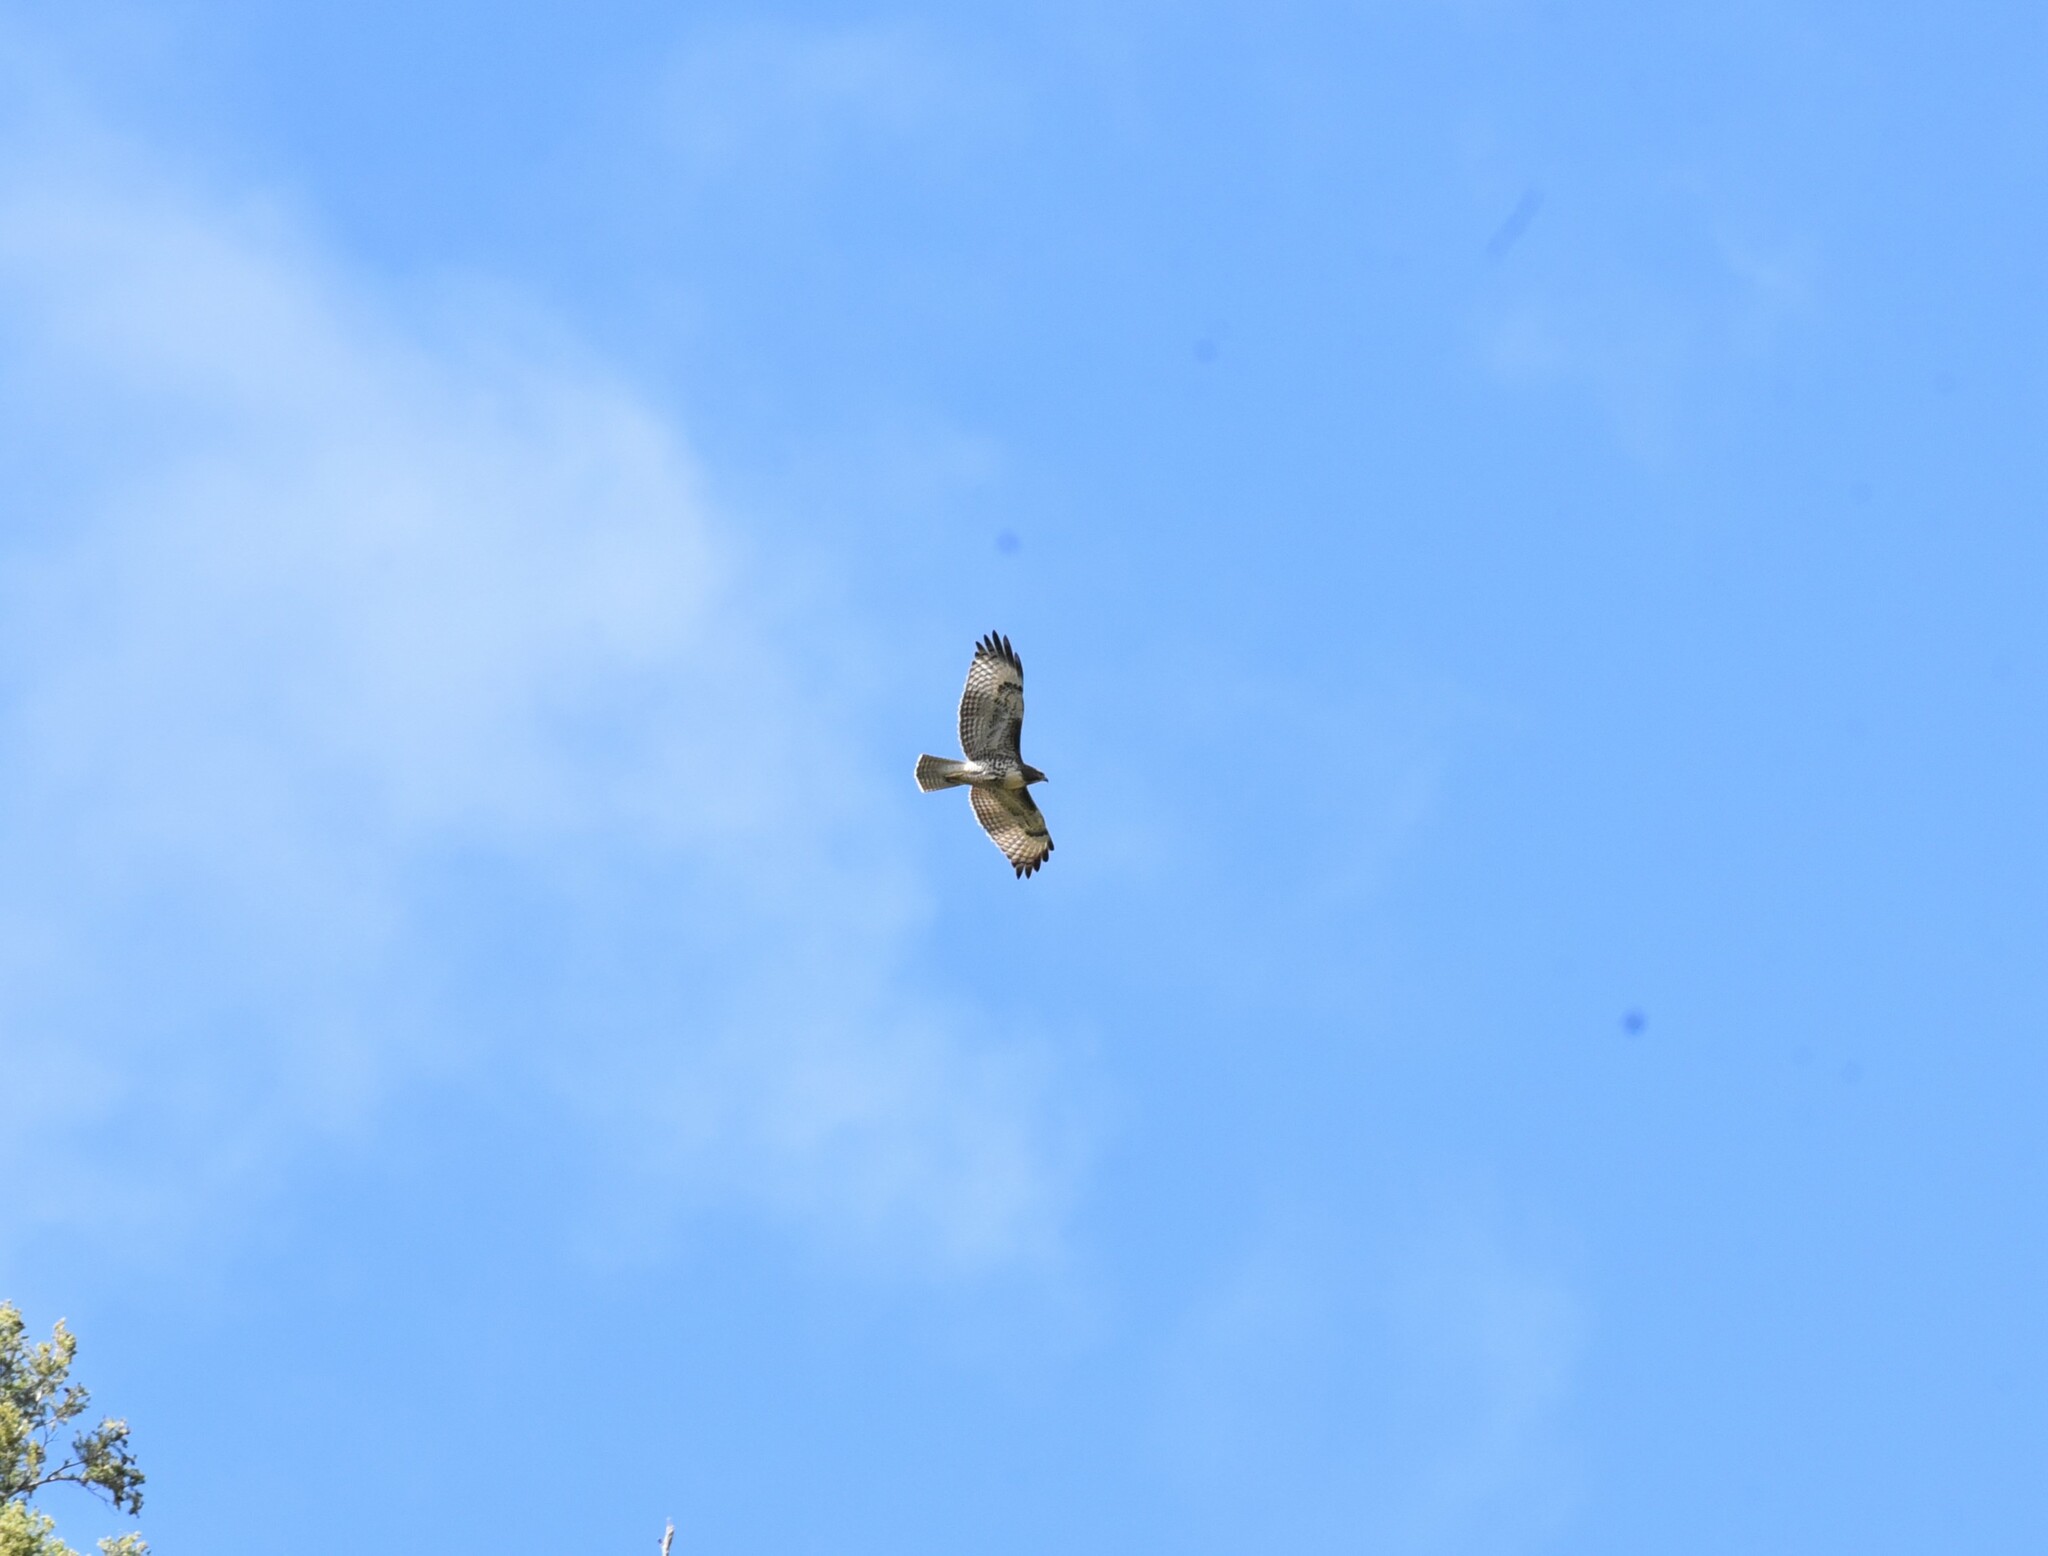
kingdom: Animalia
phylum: Chordata
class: Aves
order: Accipitriformes
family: Accipitridae
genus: Buteo
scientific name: Buteo jamaicensis
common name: Red-tailed hawk
